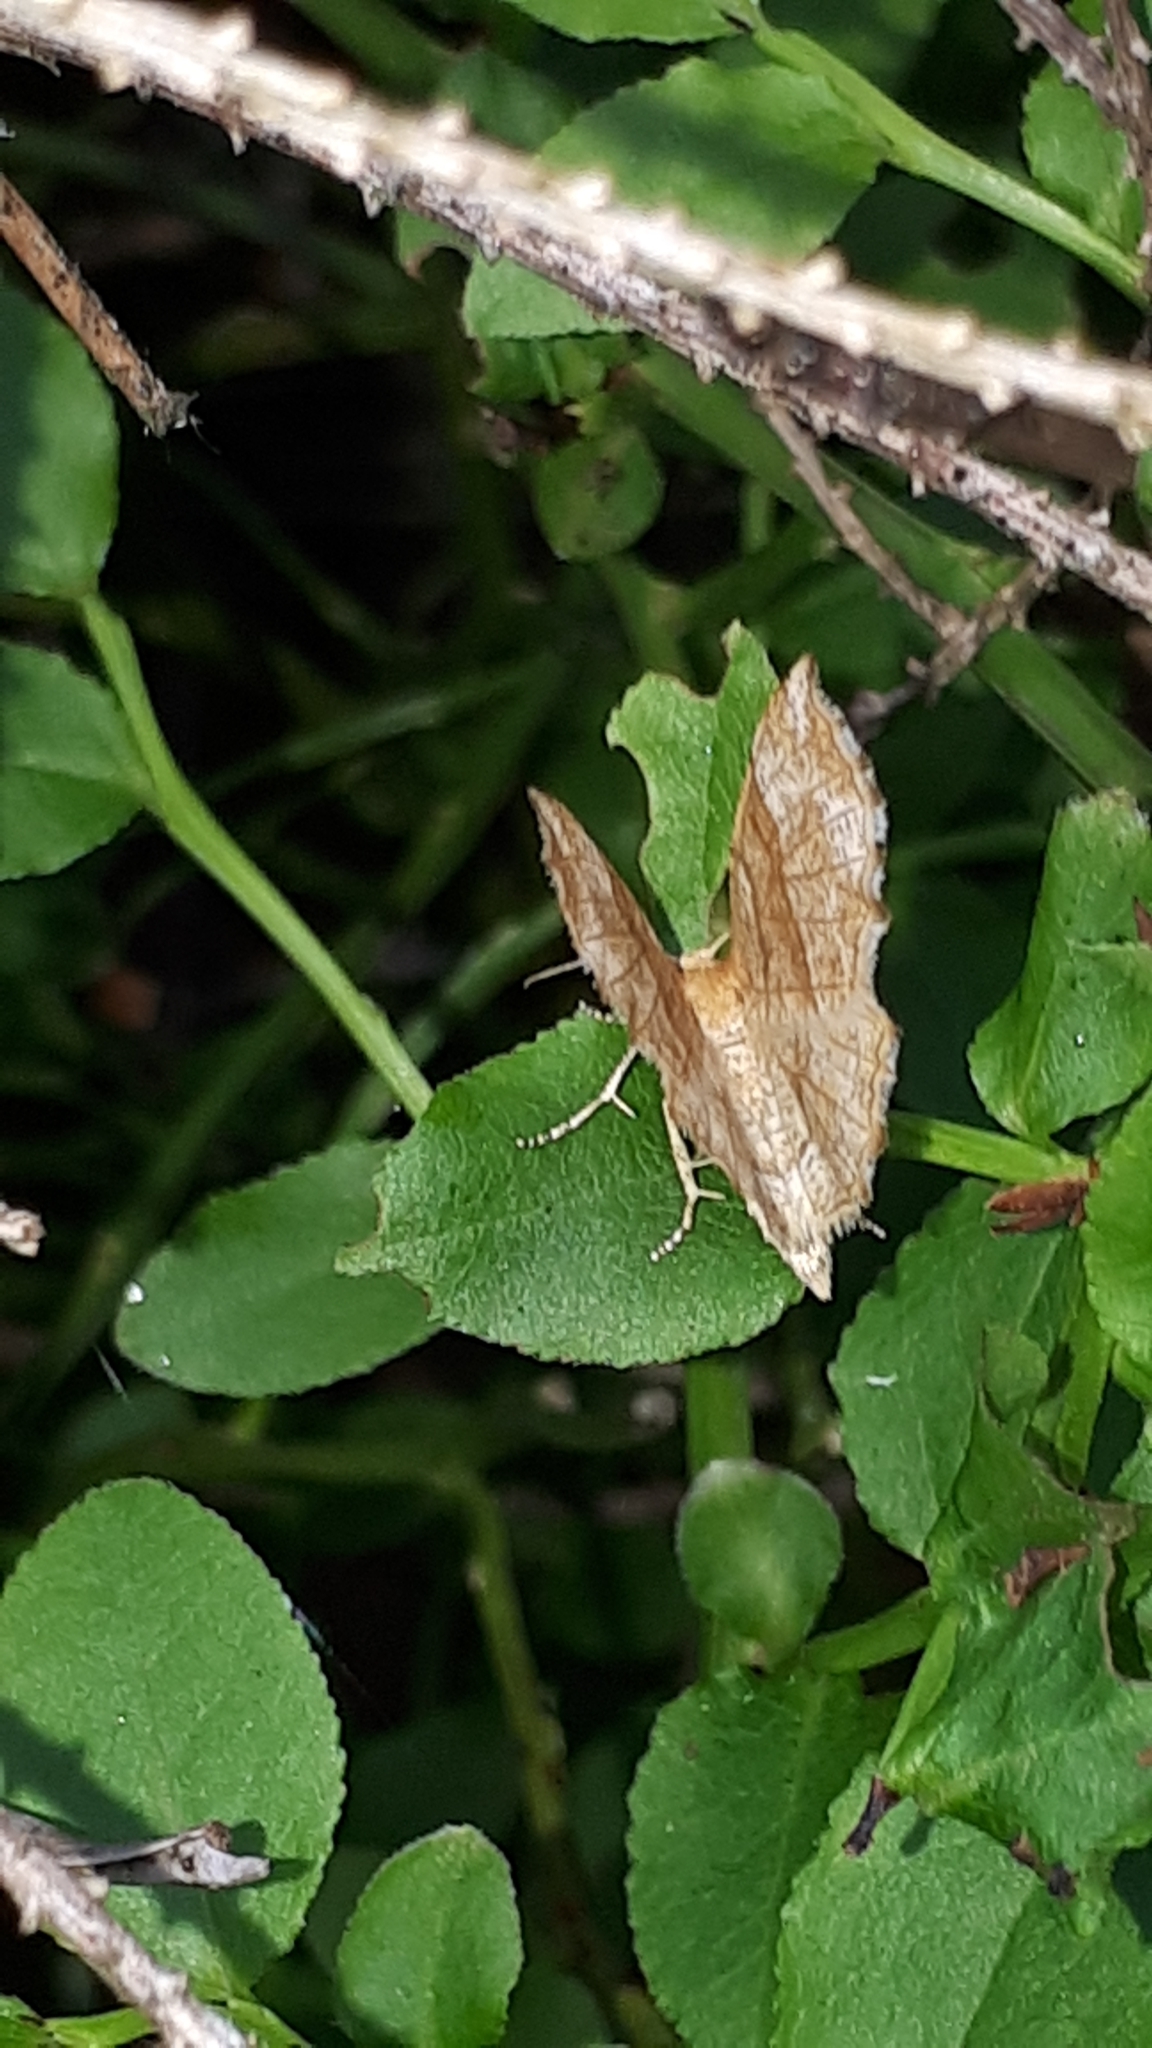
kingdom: Animalia
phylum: Arthropoda
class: Insecta
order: Lepidoptera
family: Geometridae
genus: Cepphis
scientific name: Cepphis advenaria
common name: Little thorn
